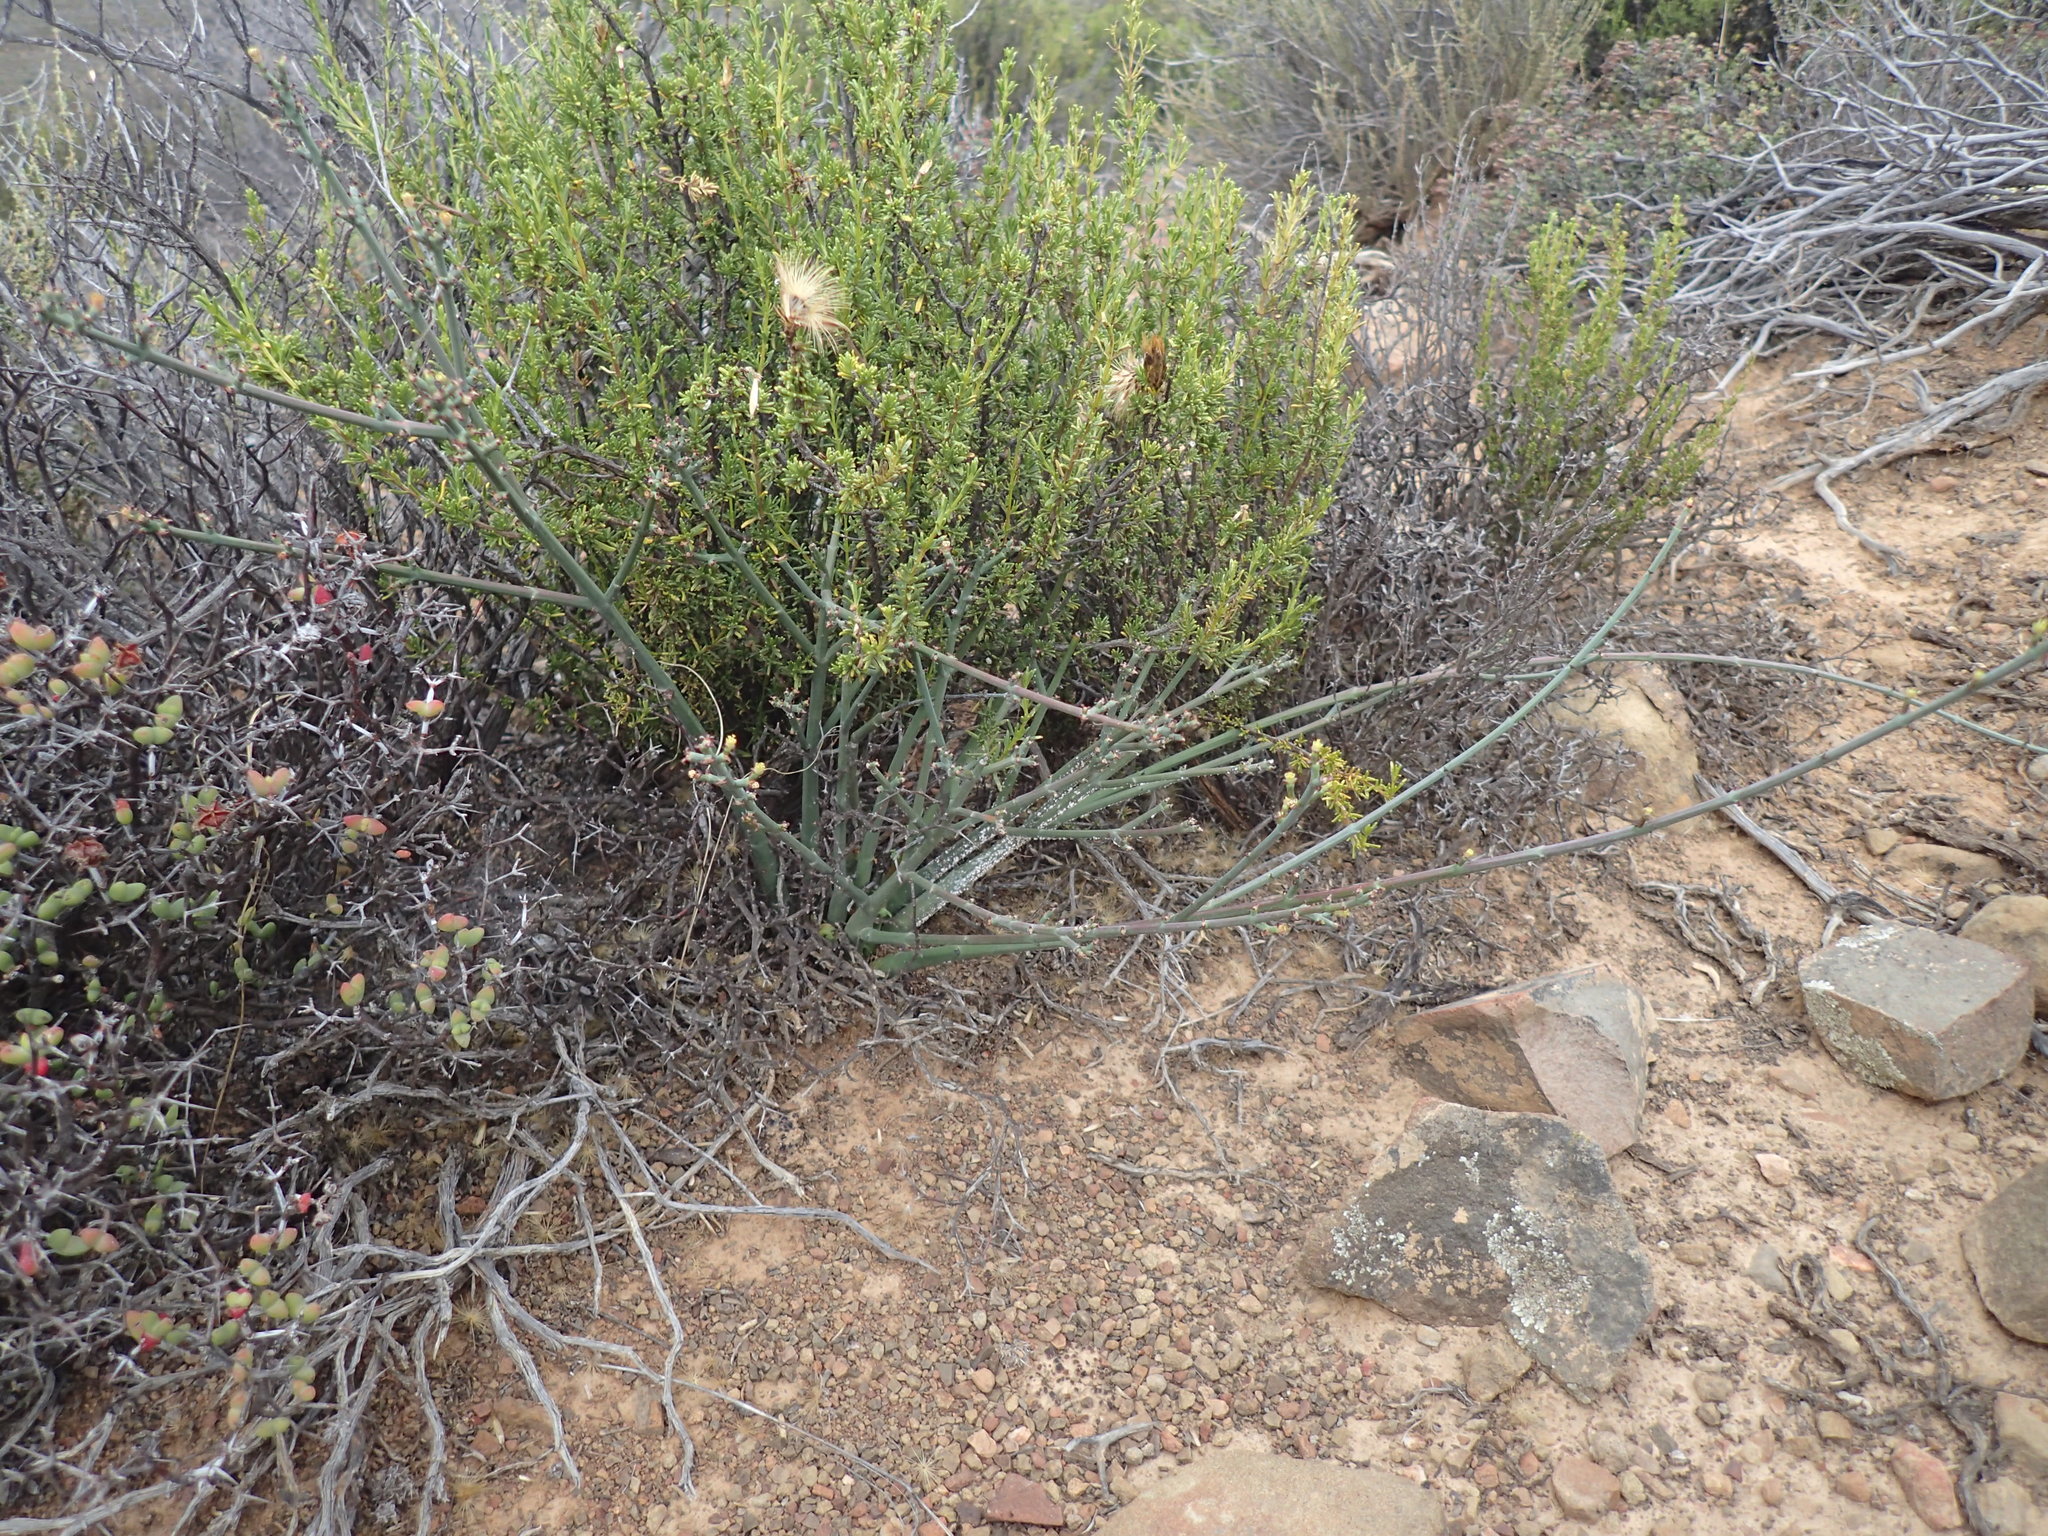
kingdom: Plantae
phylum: Tracheophyta
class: Magnoliopsida
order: Malpighiales
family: Euphorbiaceae
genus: Euphorbia
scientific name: Euphorbia tenax
